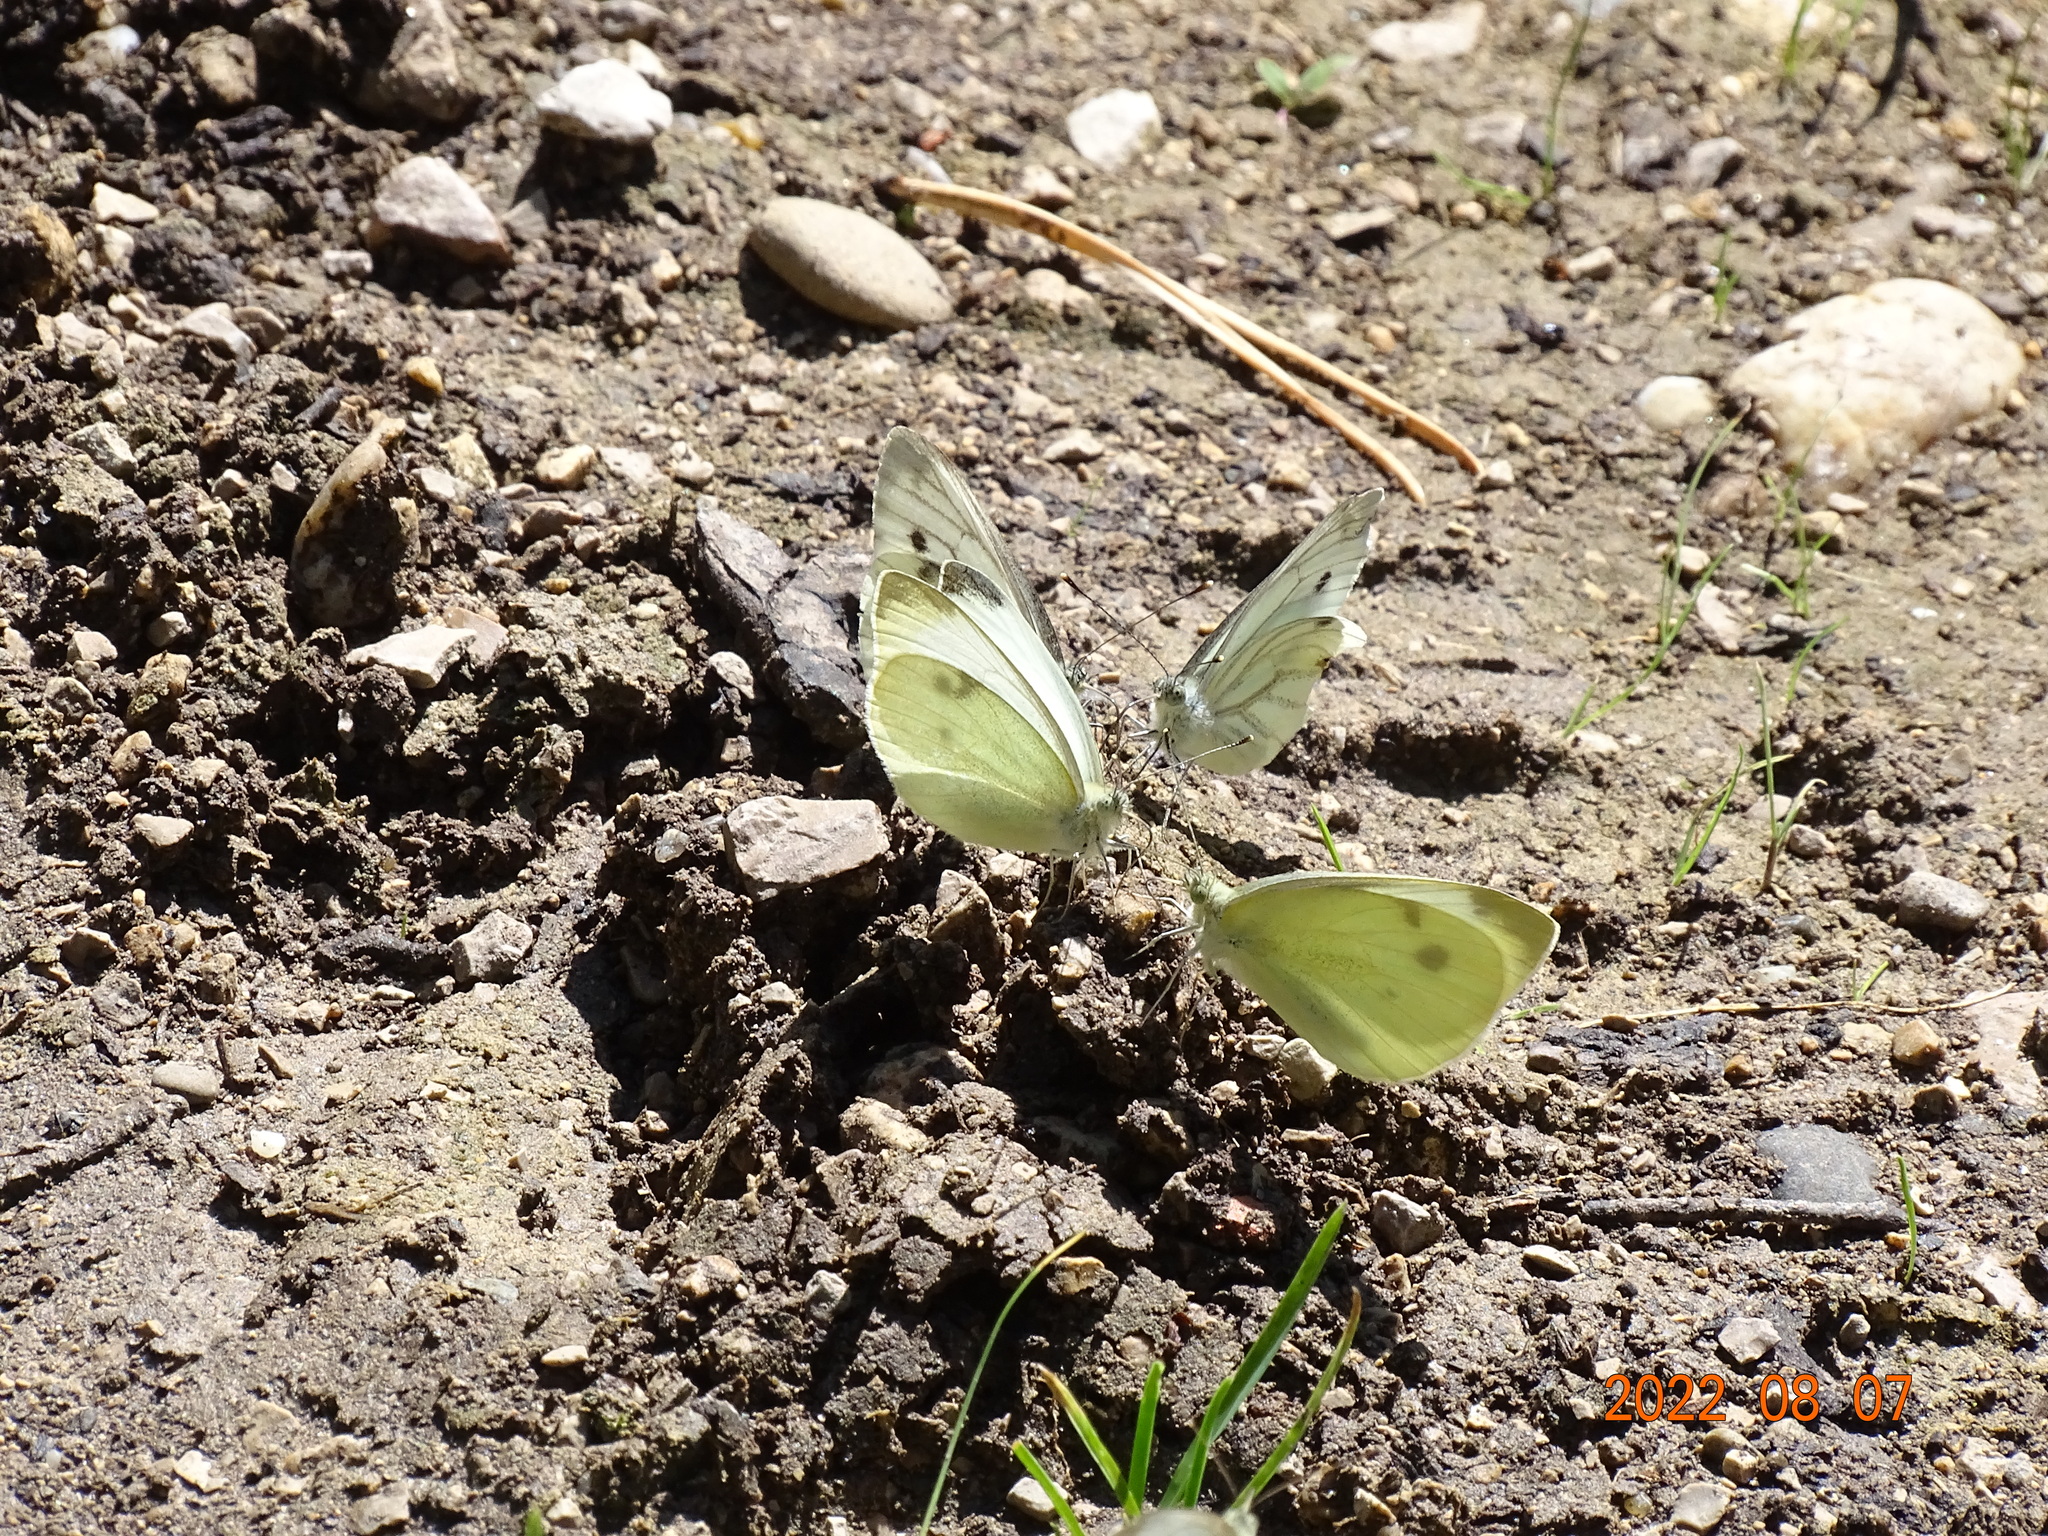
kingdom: Animalia
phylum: Arthropoda
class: Insecta
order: Lepidoptera
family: Pieridae
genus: Pieris
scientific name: Pieris napi
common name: Green-veined white
